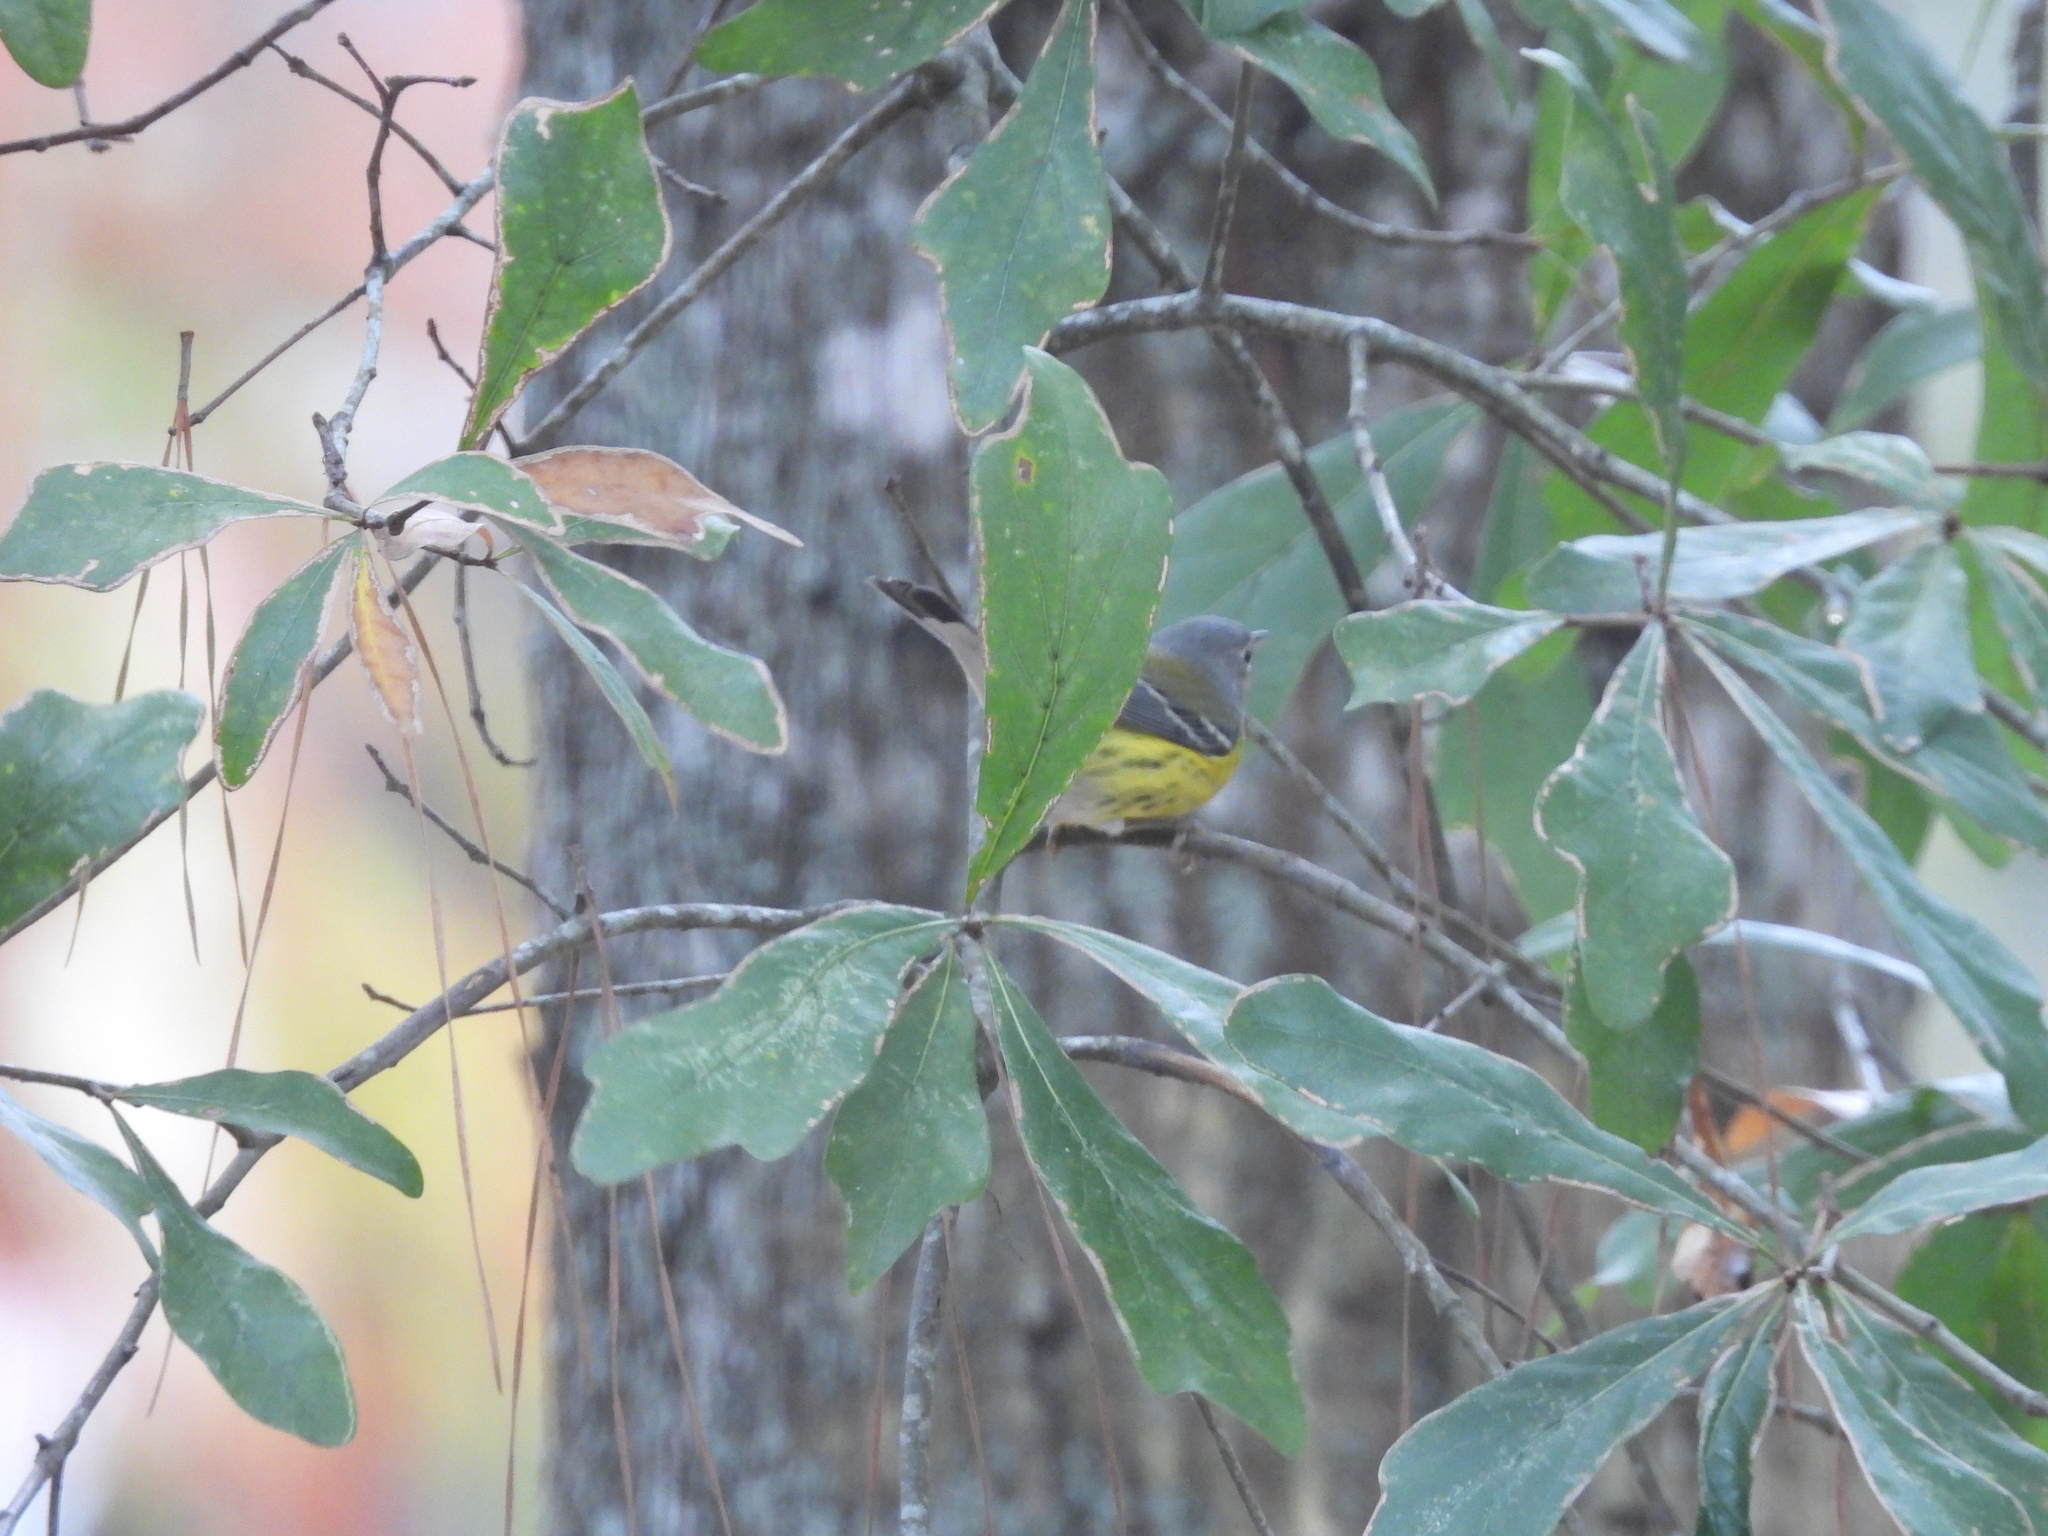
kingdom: Animalia
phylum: Chordata
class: Aves
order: Passeriformes
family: Parulidae
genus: Setophaga
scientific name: Setophaga magnolia
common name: Magnolia warbler
